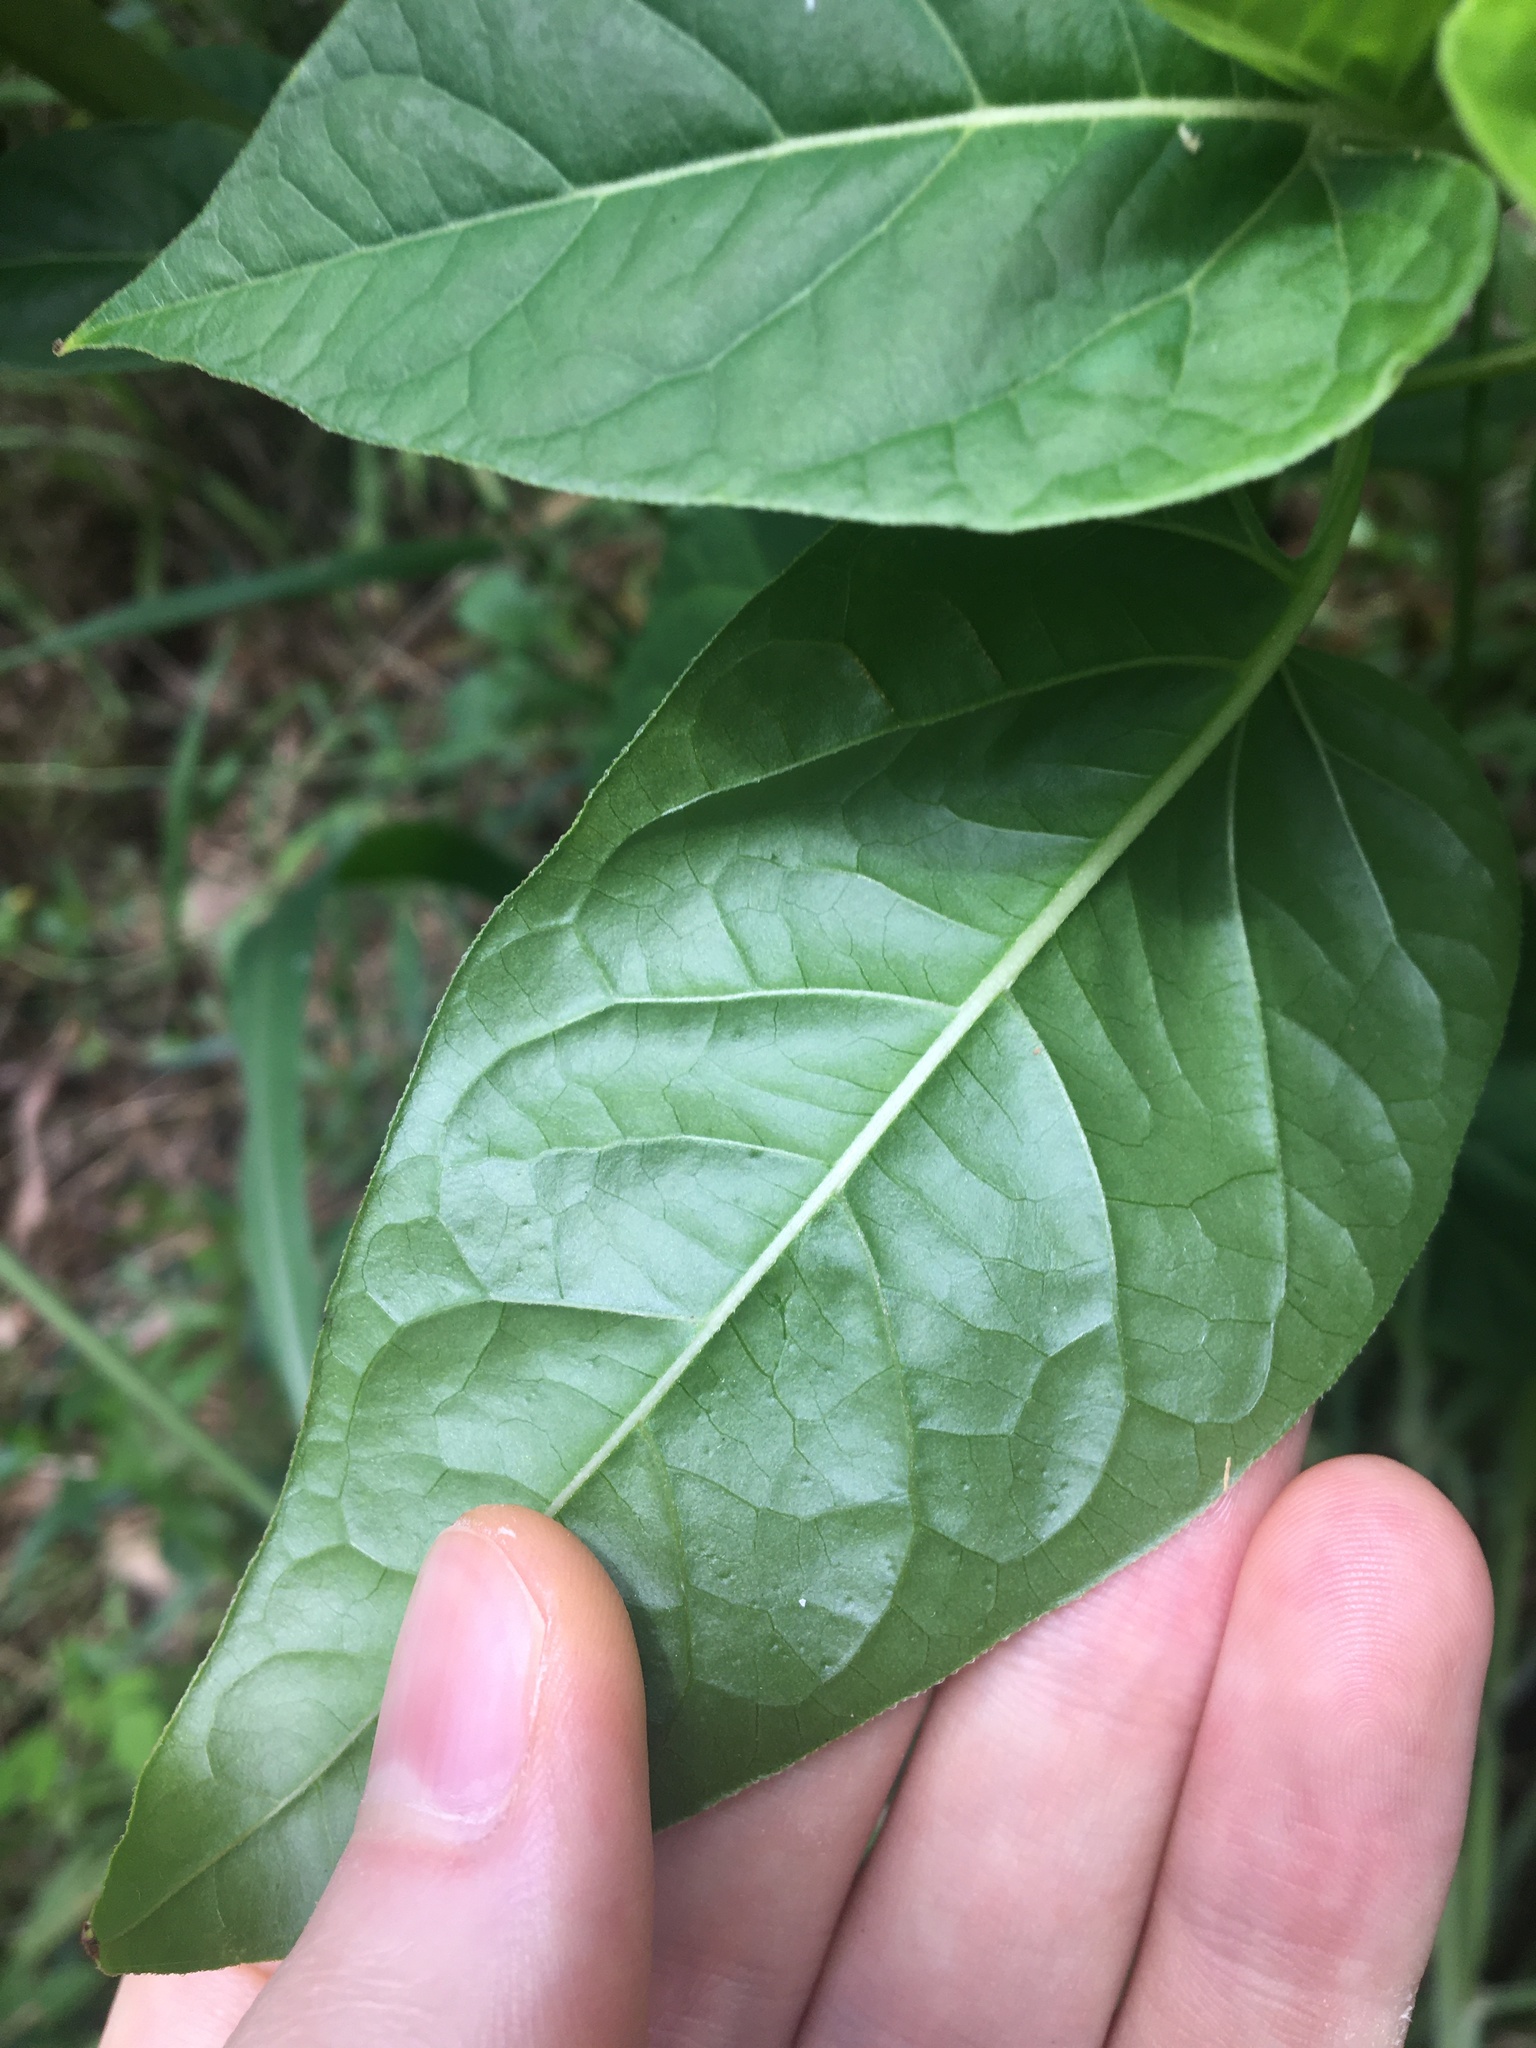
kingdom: Plantae
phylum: Tracheophyta
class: Magnoliopsida
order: Caryophyllales
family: Nyctaginaceae
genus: Mirabilis
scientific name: Mirabilis jalapa
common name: Marvel-of-peru
